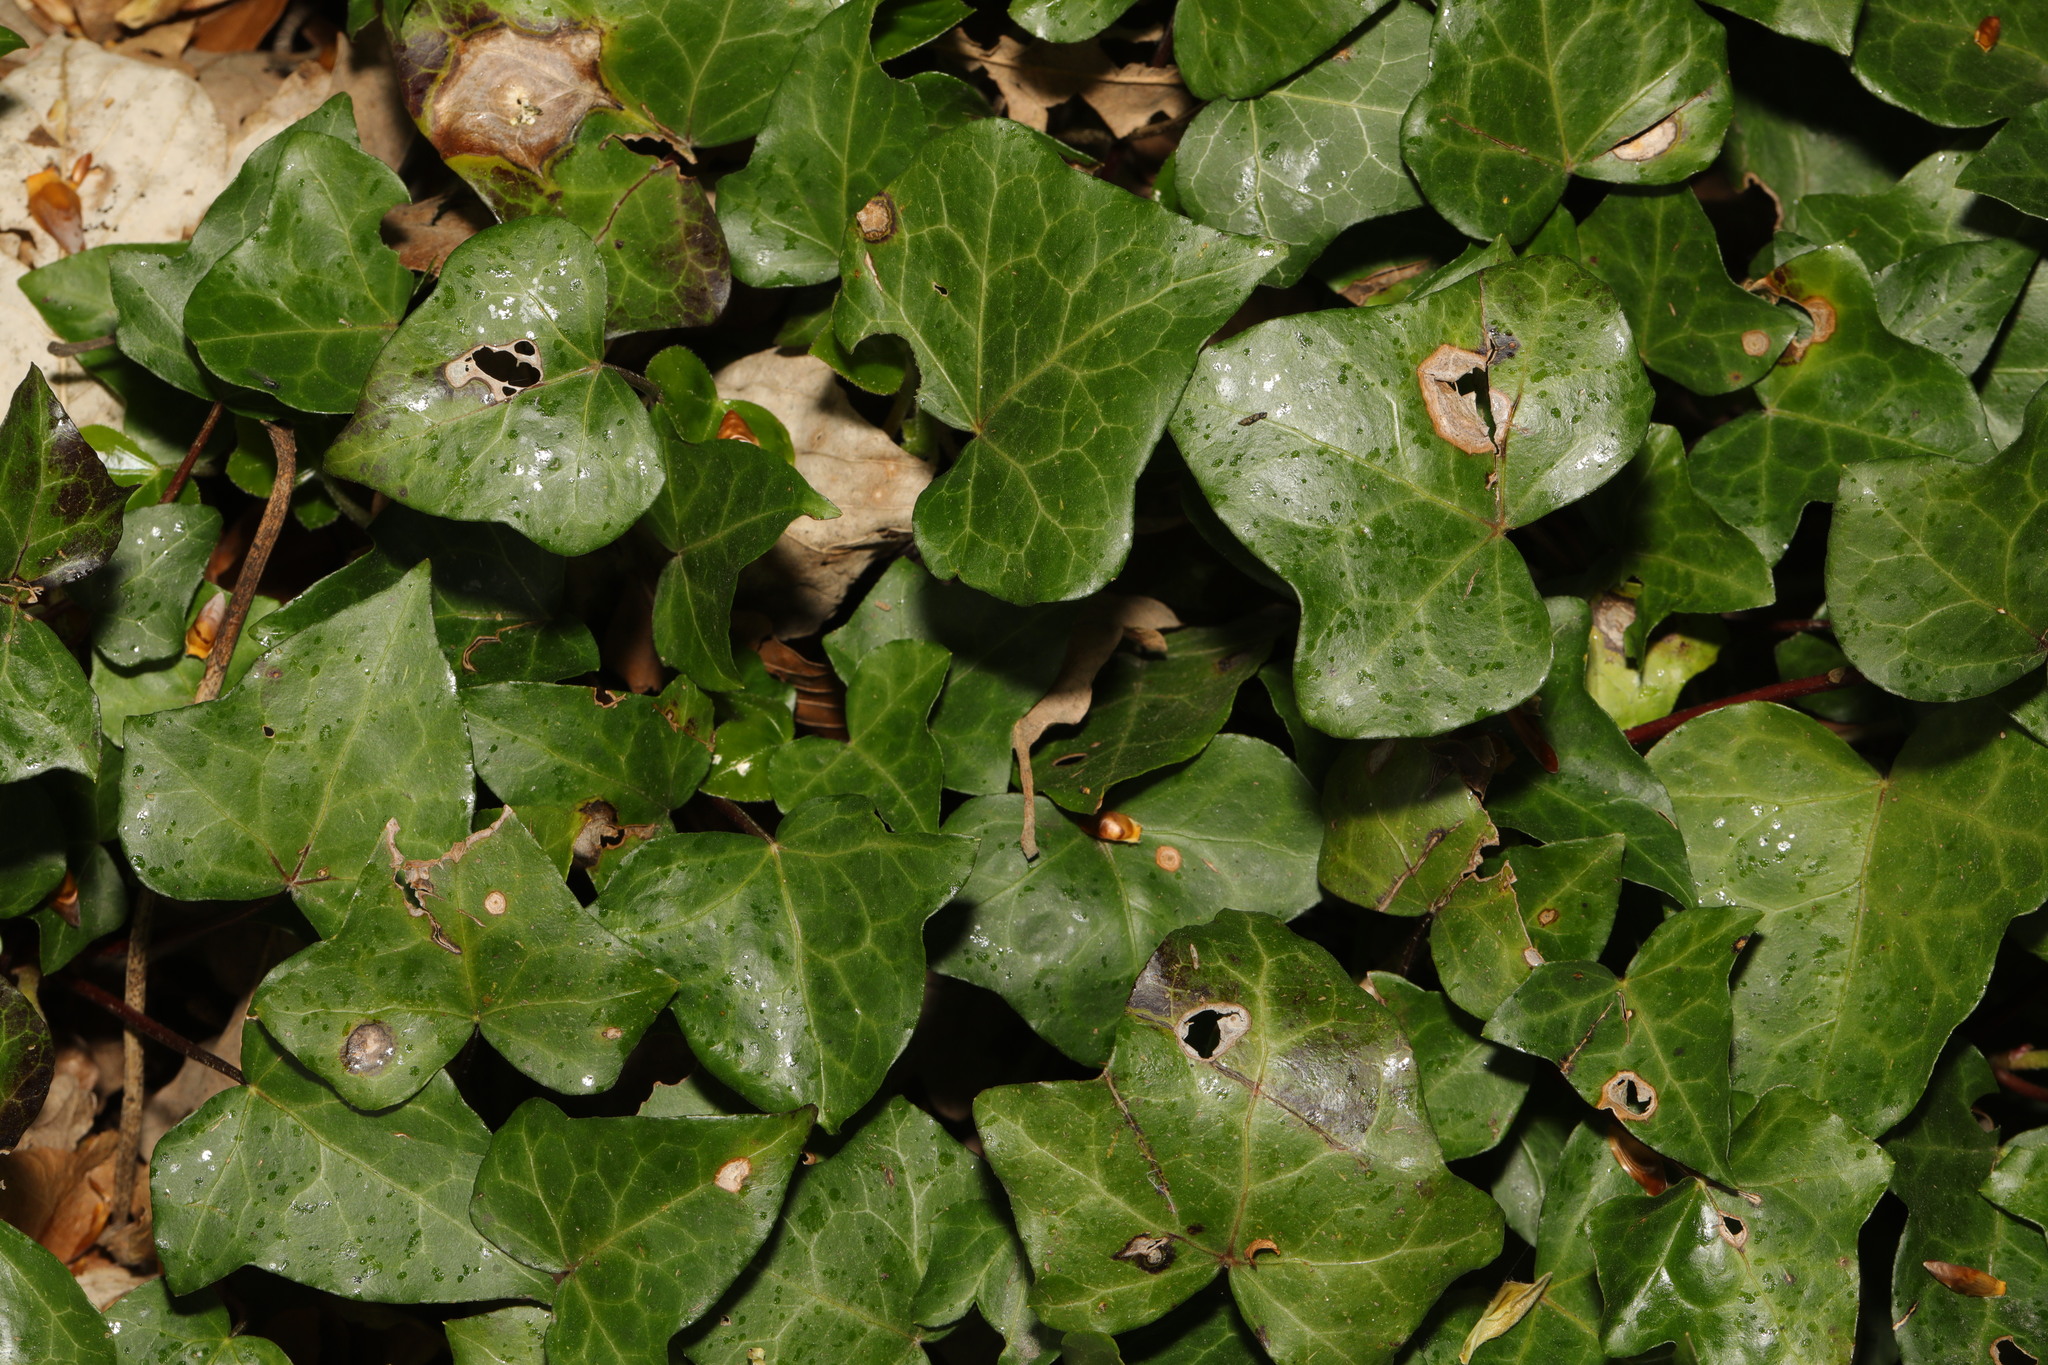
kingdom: Plantae
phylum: Tracheophyta
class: Magnoliopsida
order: Apiales
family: Araliaceae
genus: Hedera
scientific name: Hedera helix
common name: Ivy
